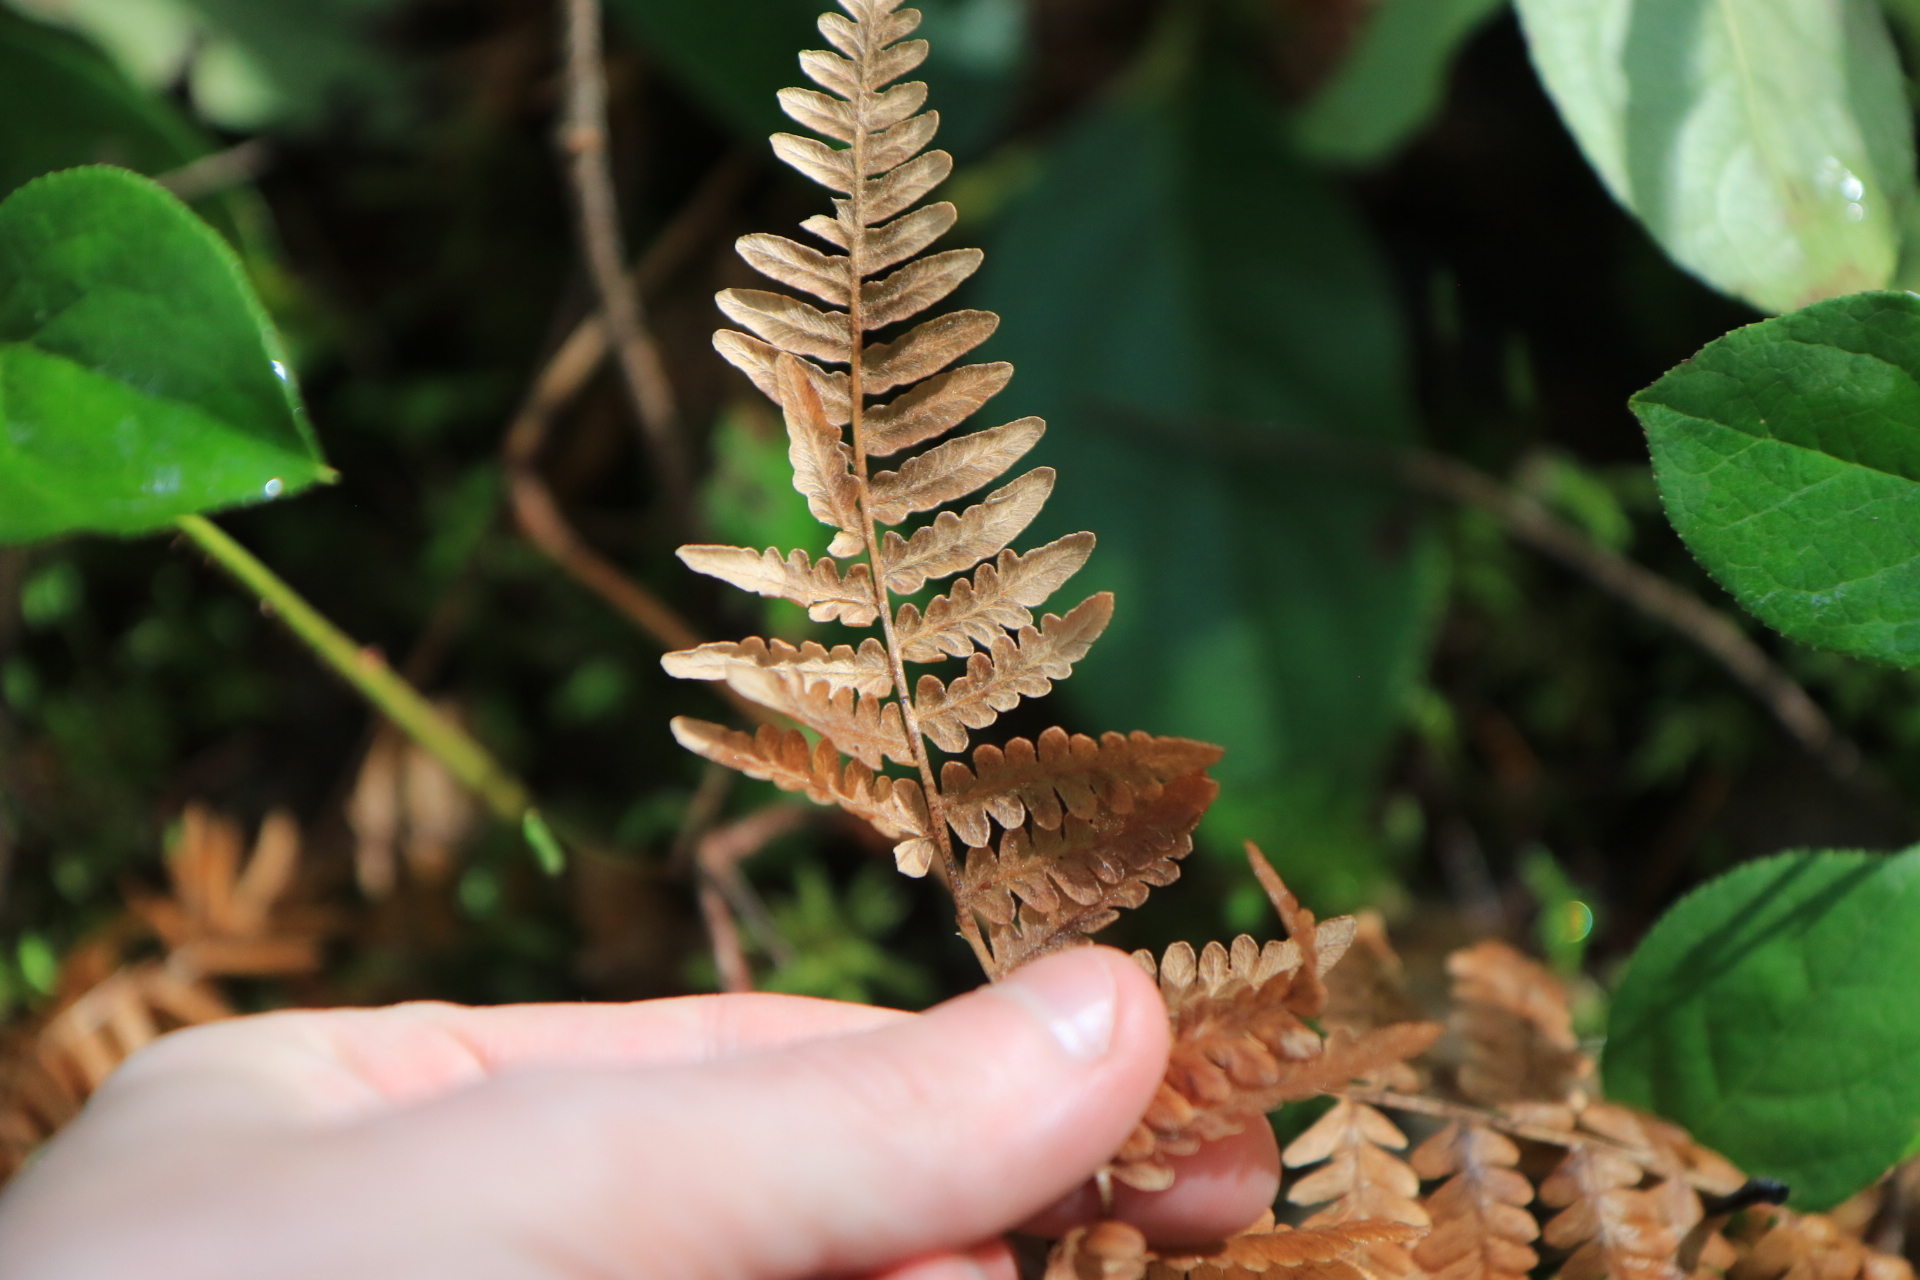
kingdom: Plantae
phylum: Tracheophyta
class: Polypodiopsida
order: Polypodiales
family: Dennstaedtiaceae
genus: Pteridium
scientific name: Pteridium aquilinum
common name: Bracken
